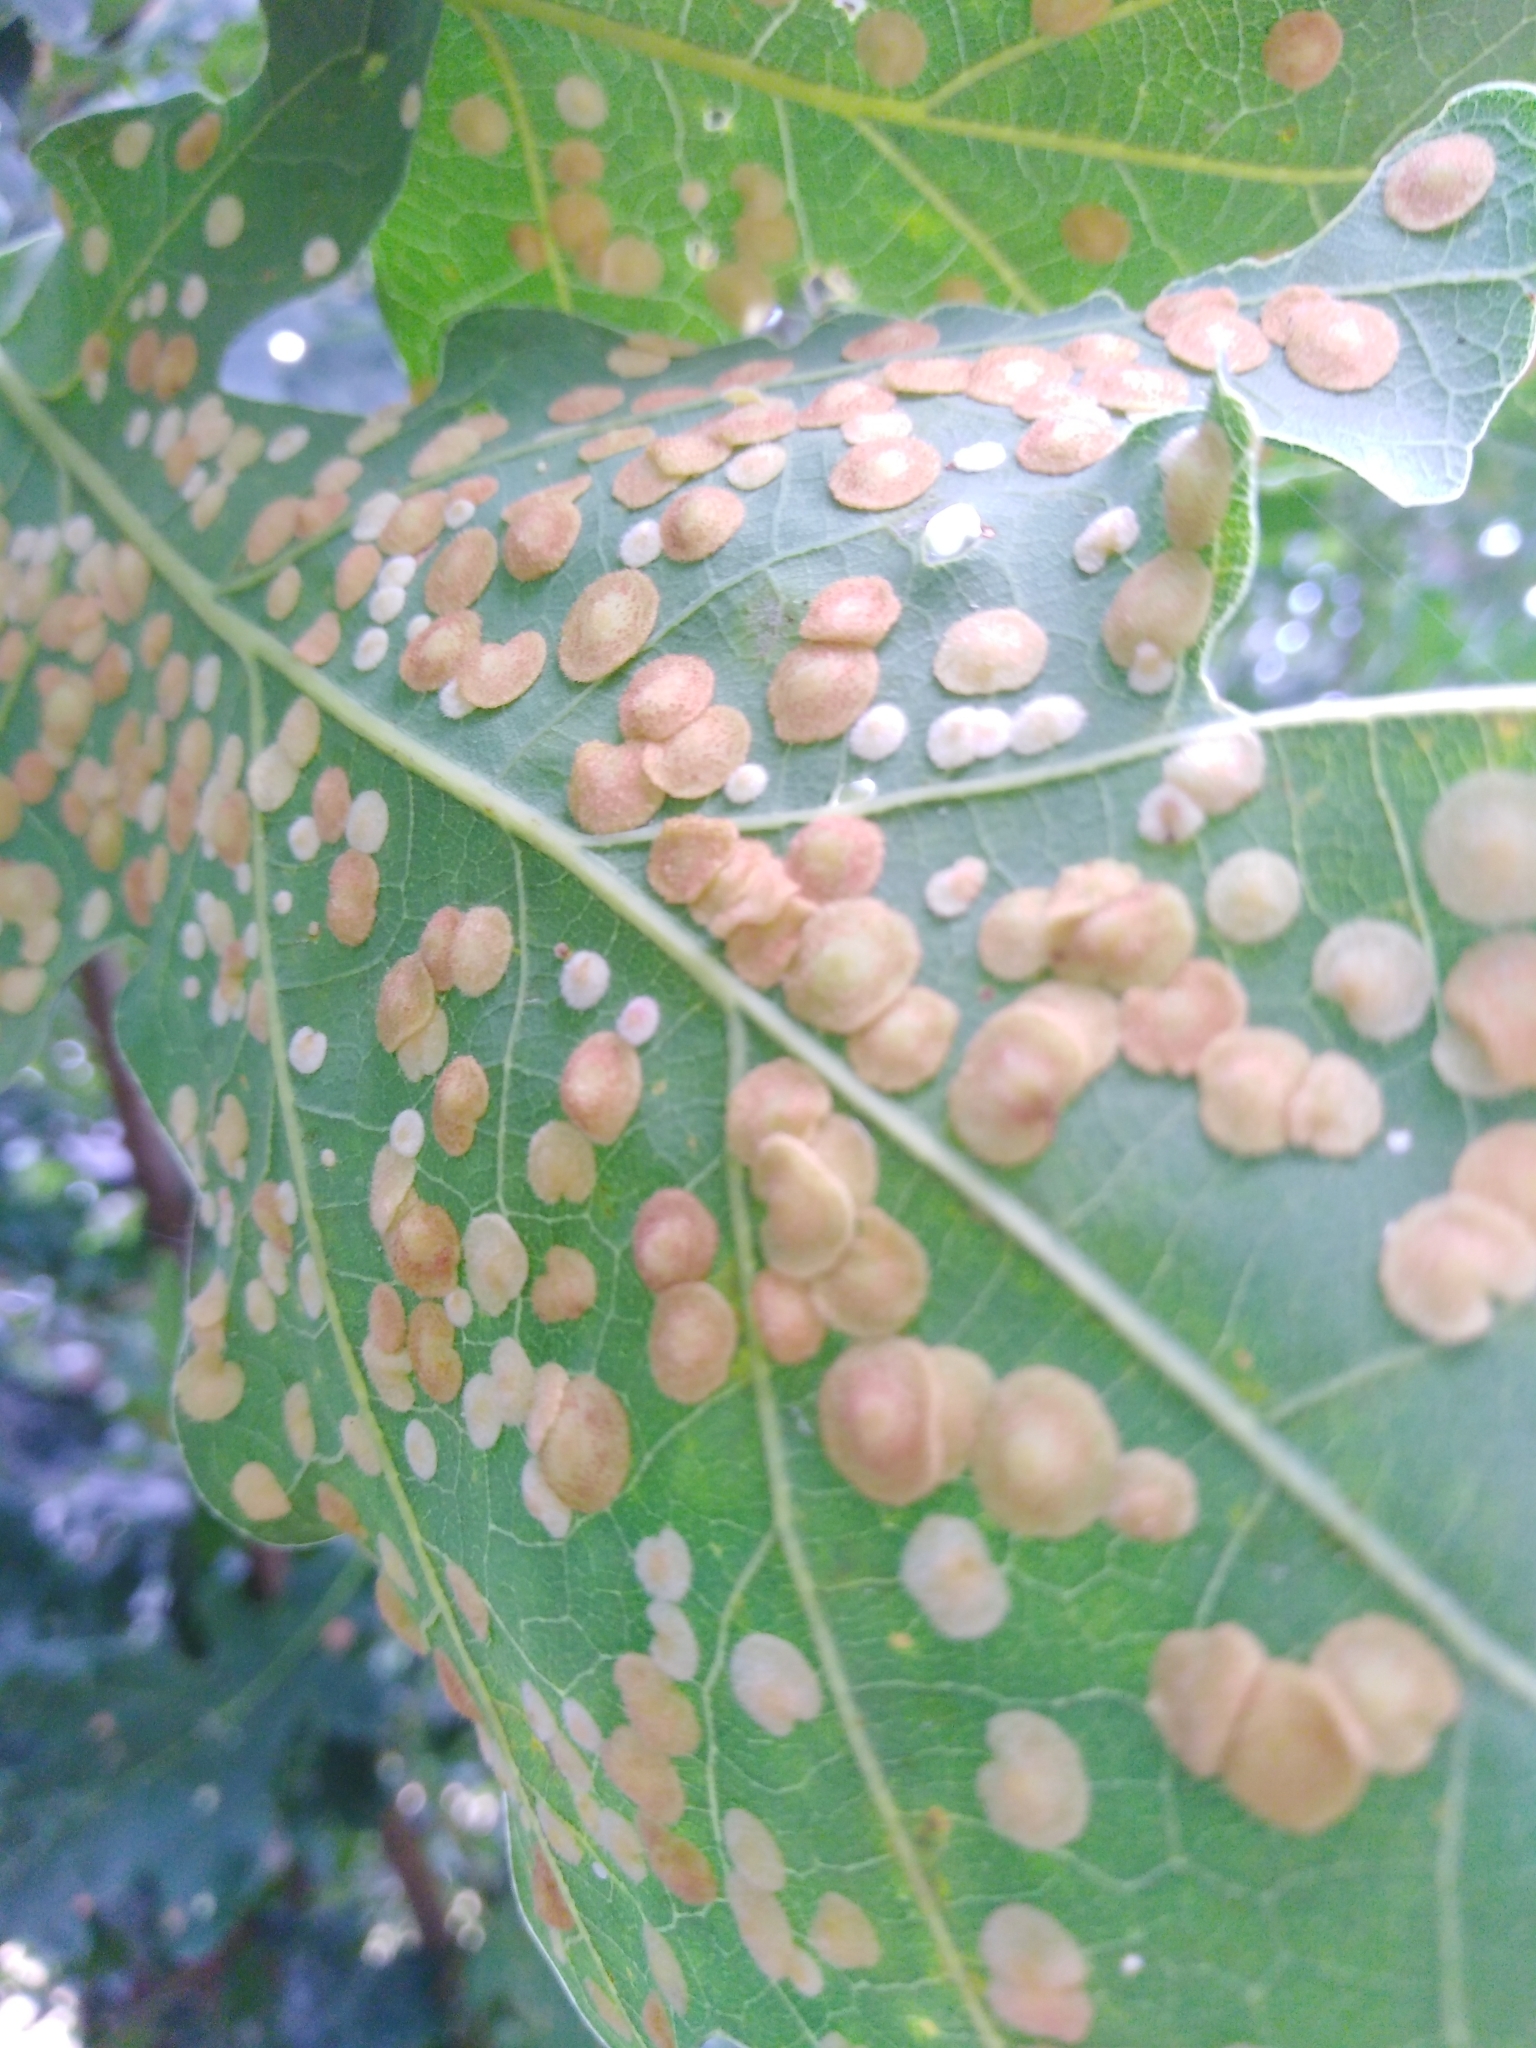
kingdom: Animalia
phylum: Arthropoda
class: Insecta
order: Hymenoptera
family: Cynipidae
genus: Neuroterus
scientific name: Neuroterus quercusbaccarum
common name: Common spangle gall
